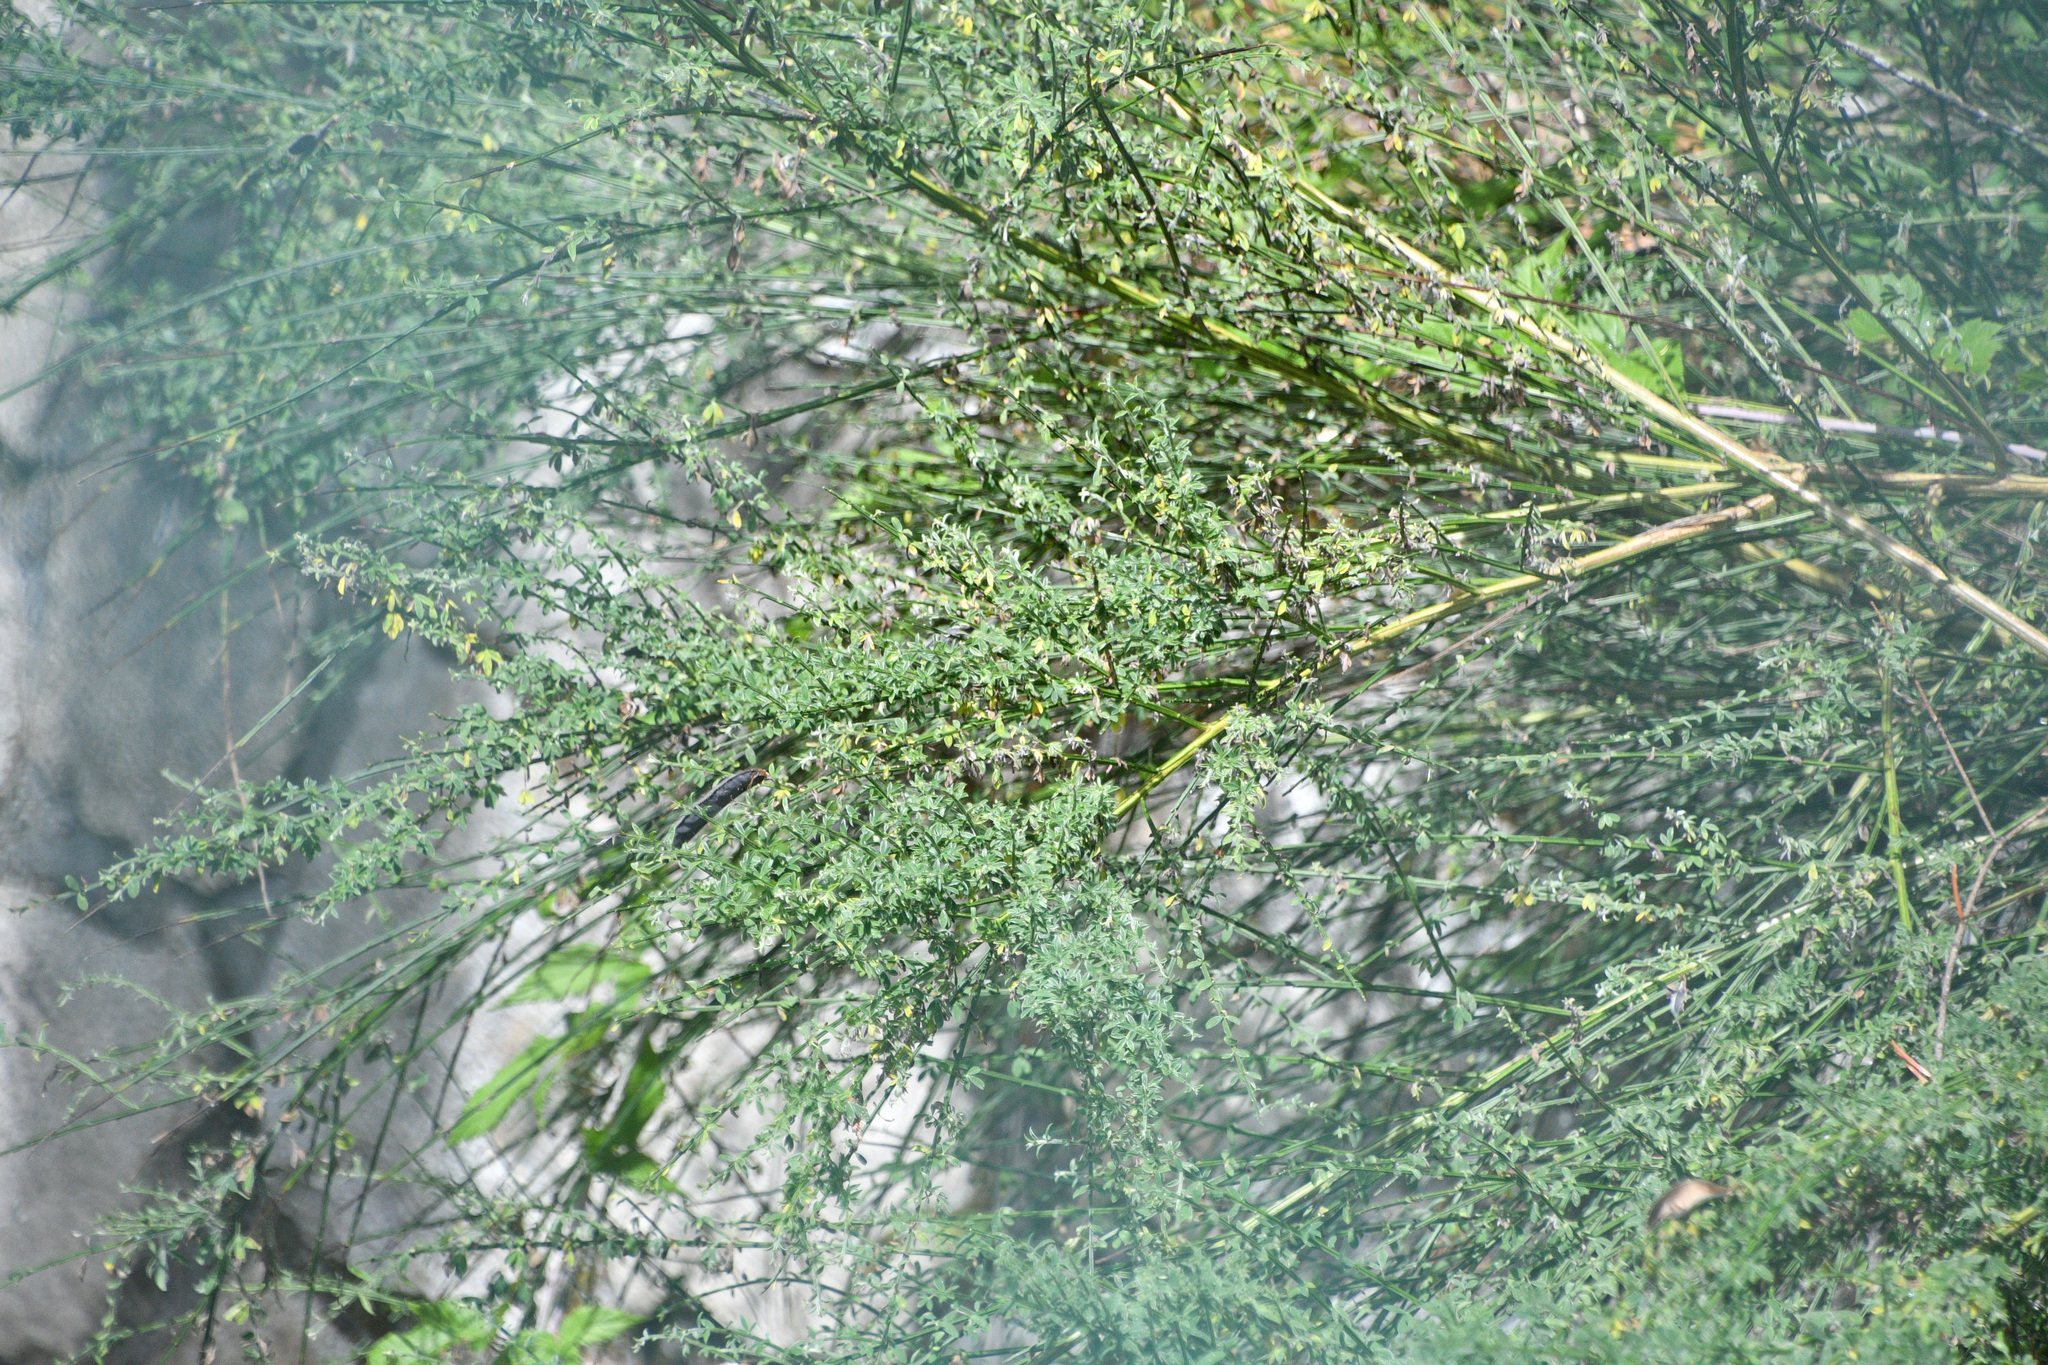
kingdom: Plantae
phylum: Tracheophyta
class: Magnoliopsida
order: Fabales
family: Fabaceae
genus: Cytisus
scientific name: Cytisus scoparius
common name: Scotch broom
